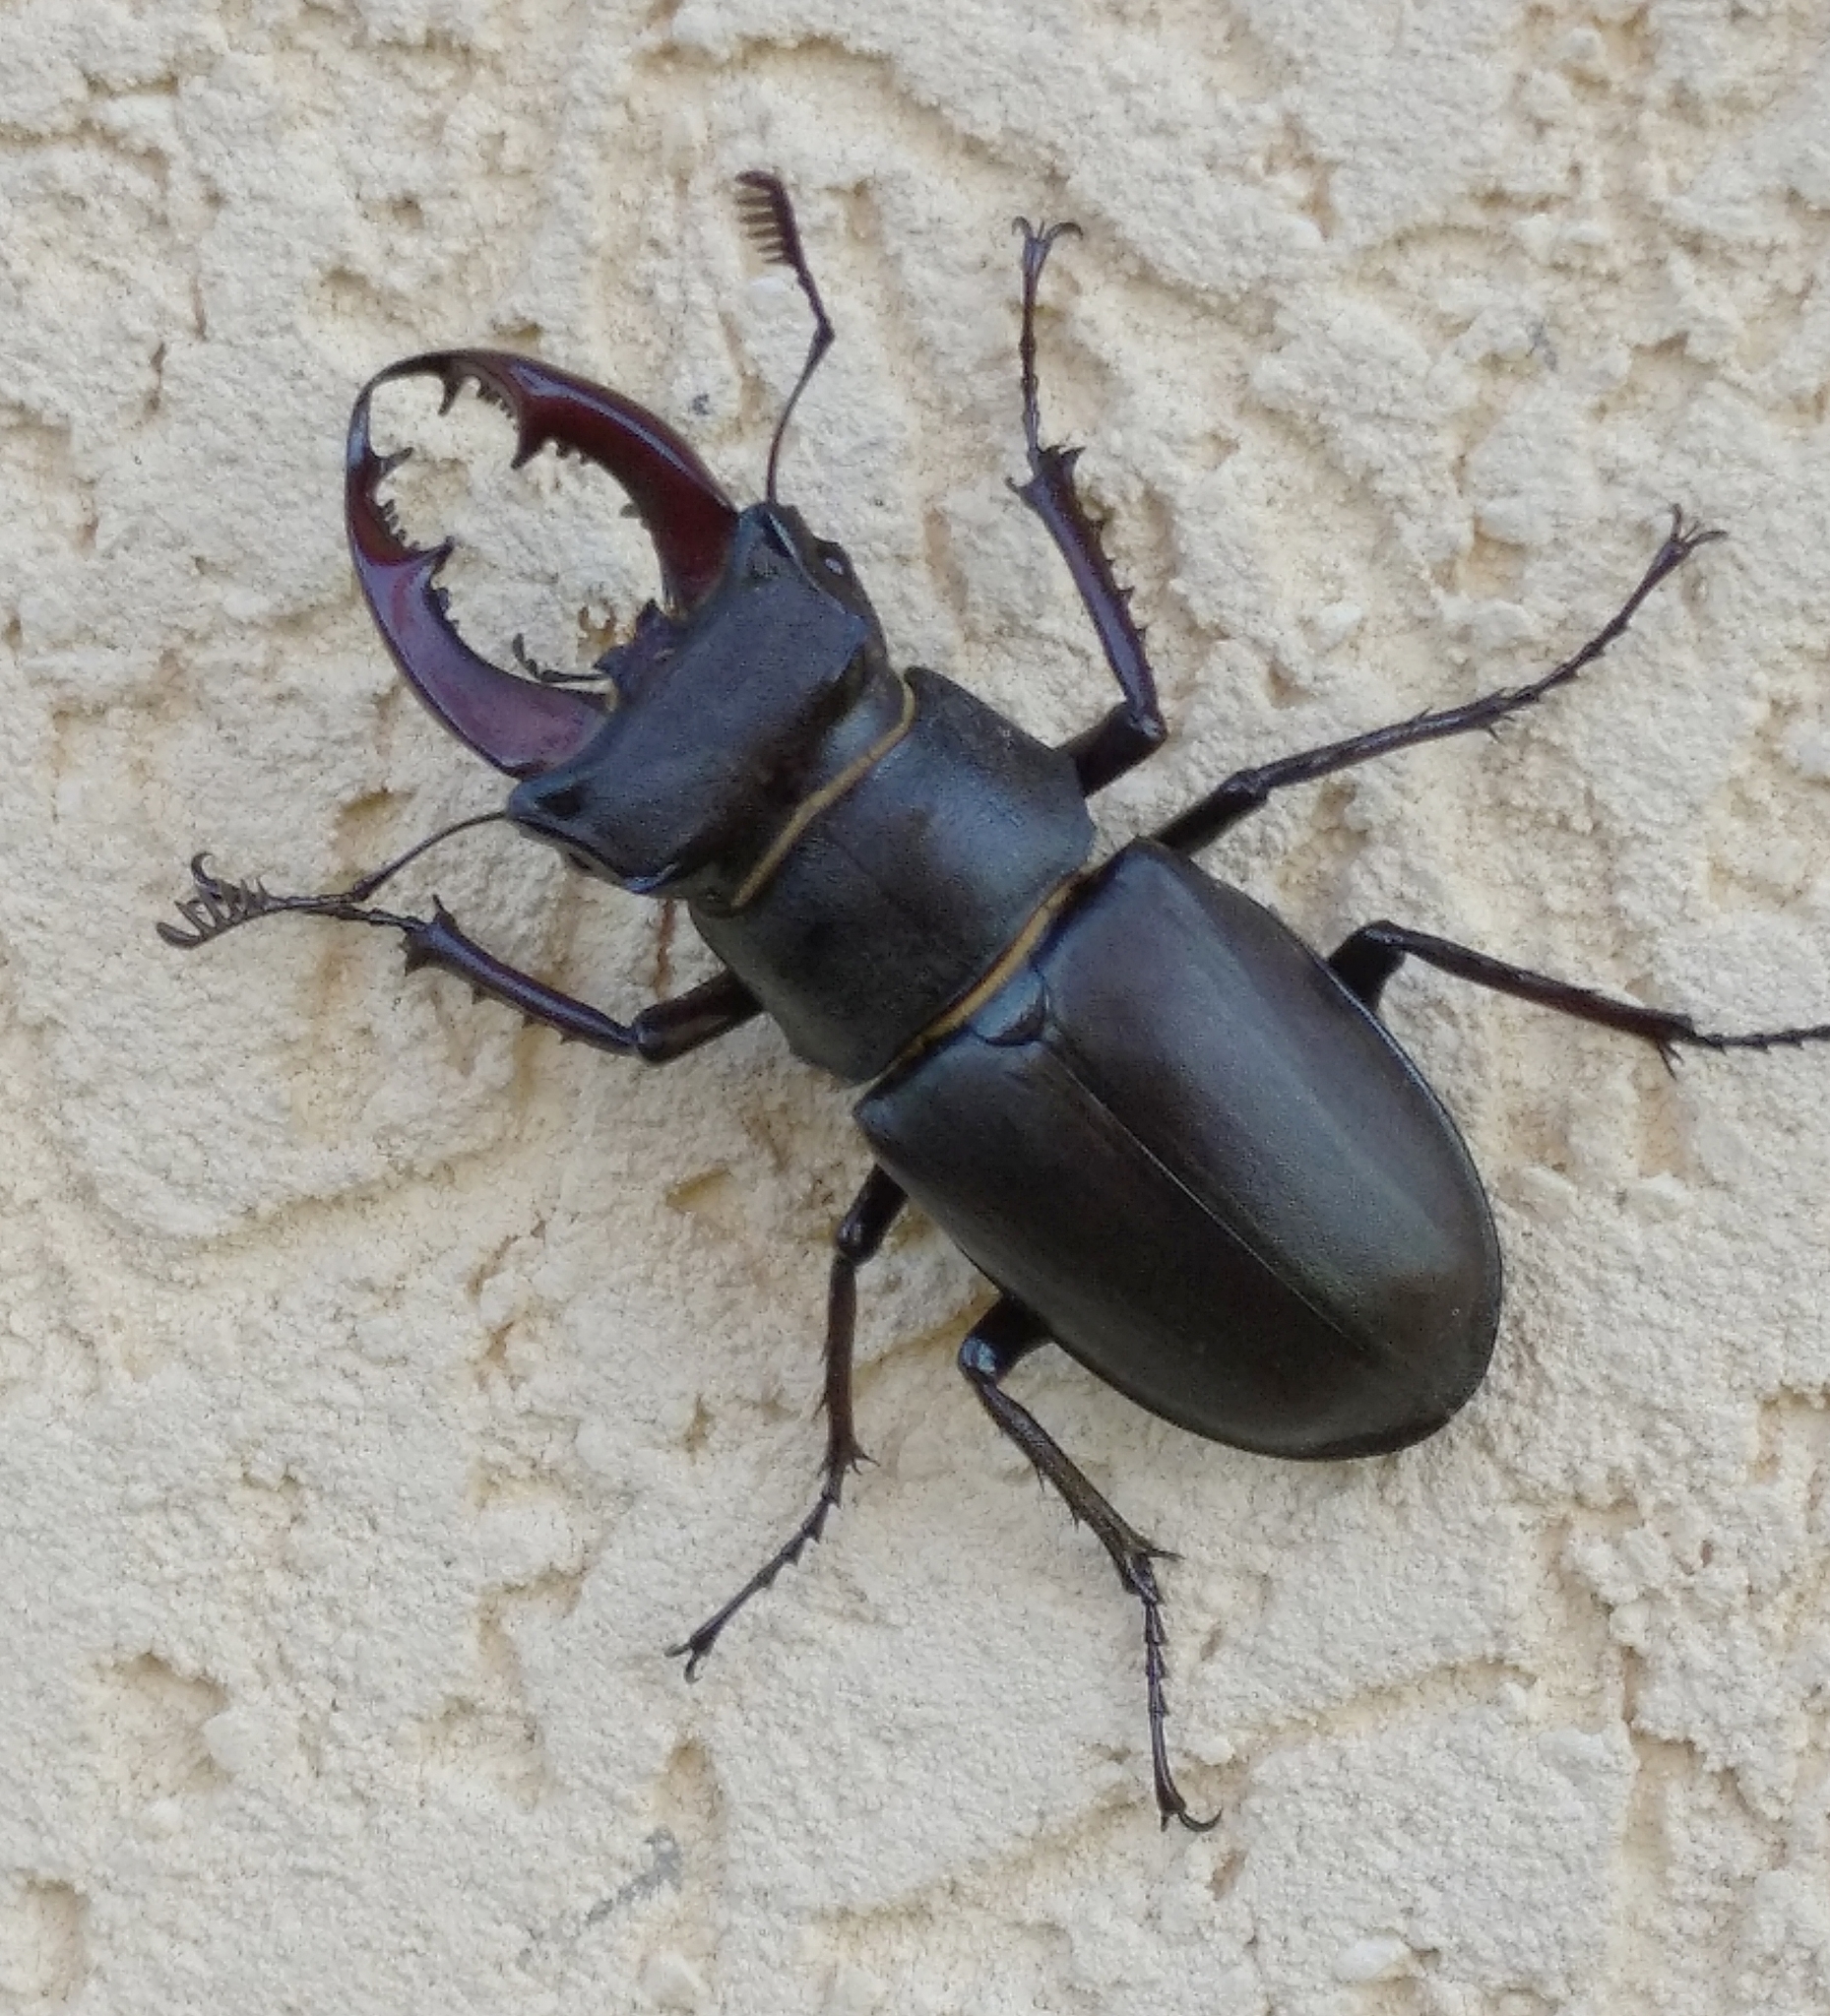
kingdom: Animalia
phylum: Arthropoda
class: Insecta
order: Coleoptera
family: Lucanidae
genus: Lucanus
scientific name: Lucanus cervus
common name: Stag beetle
